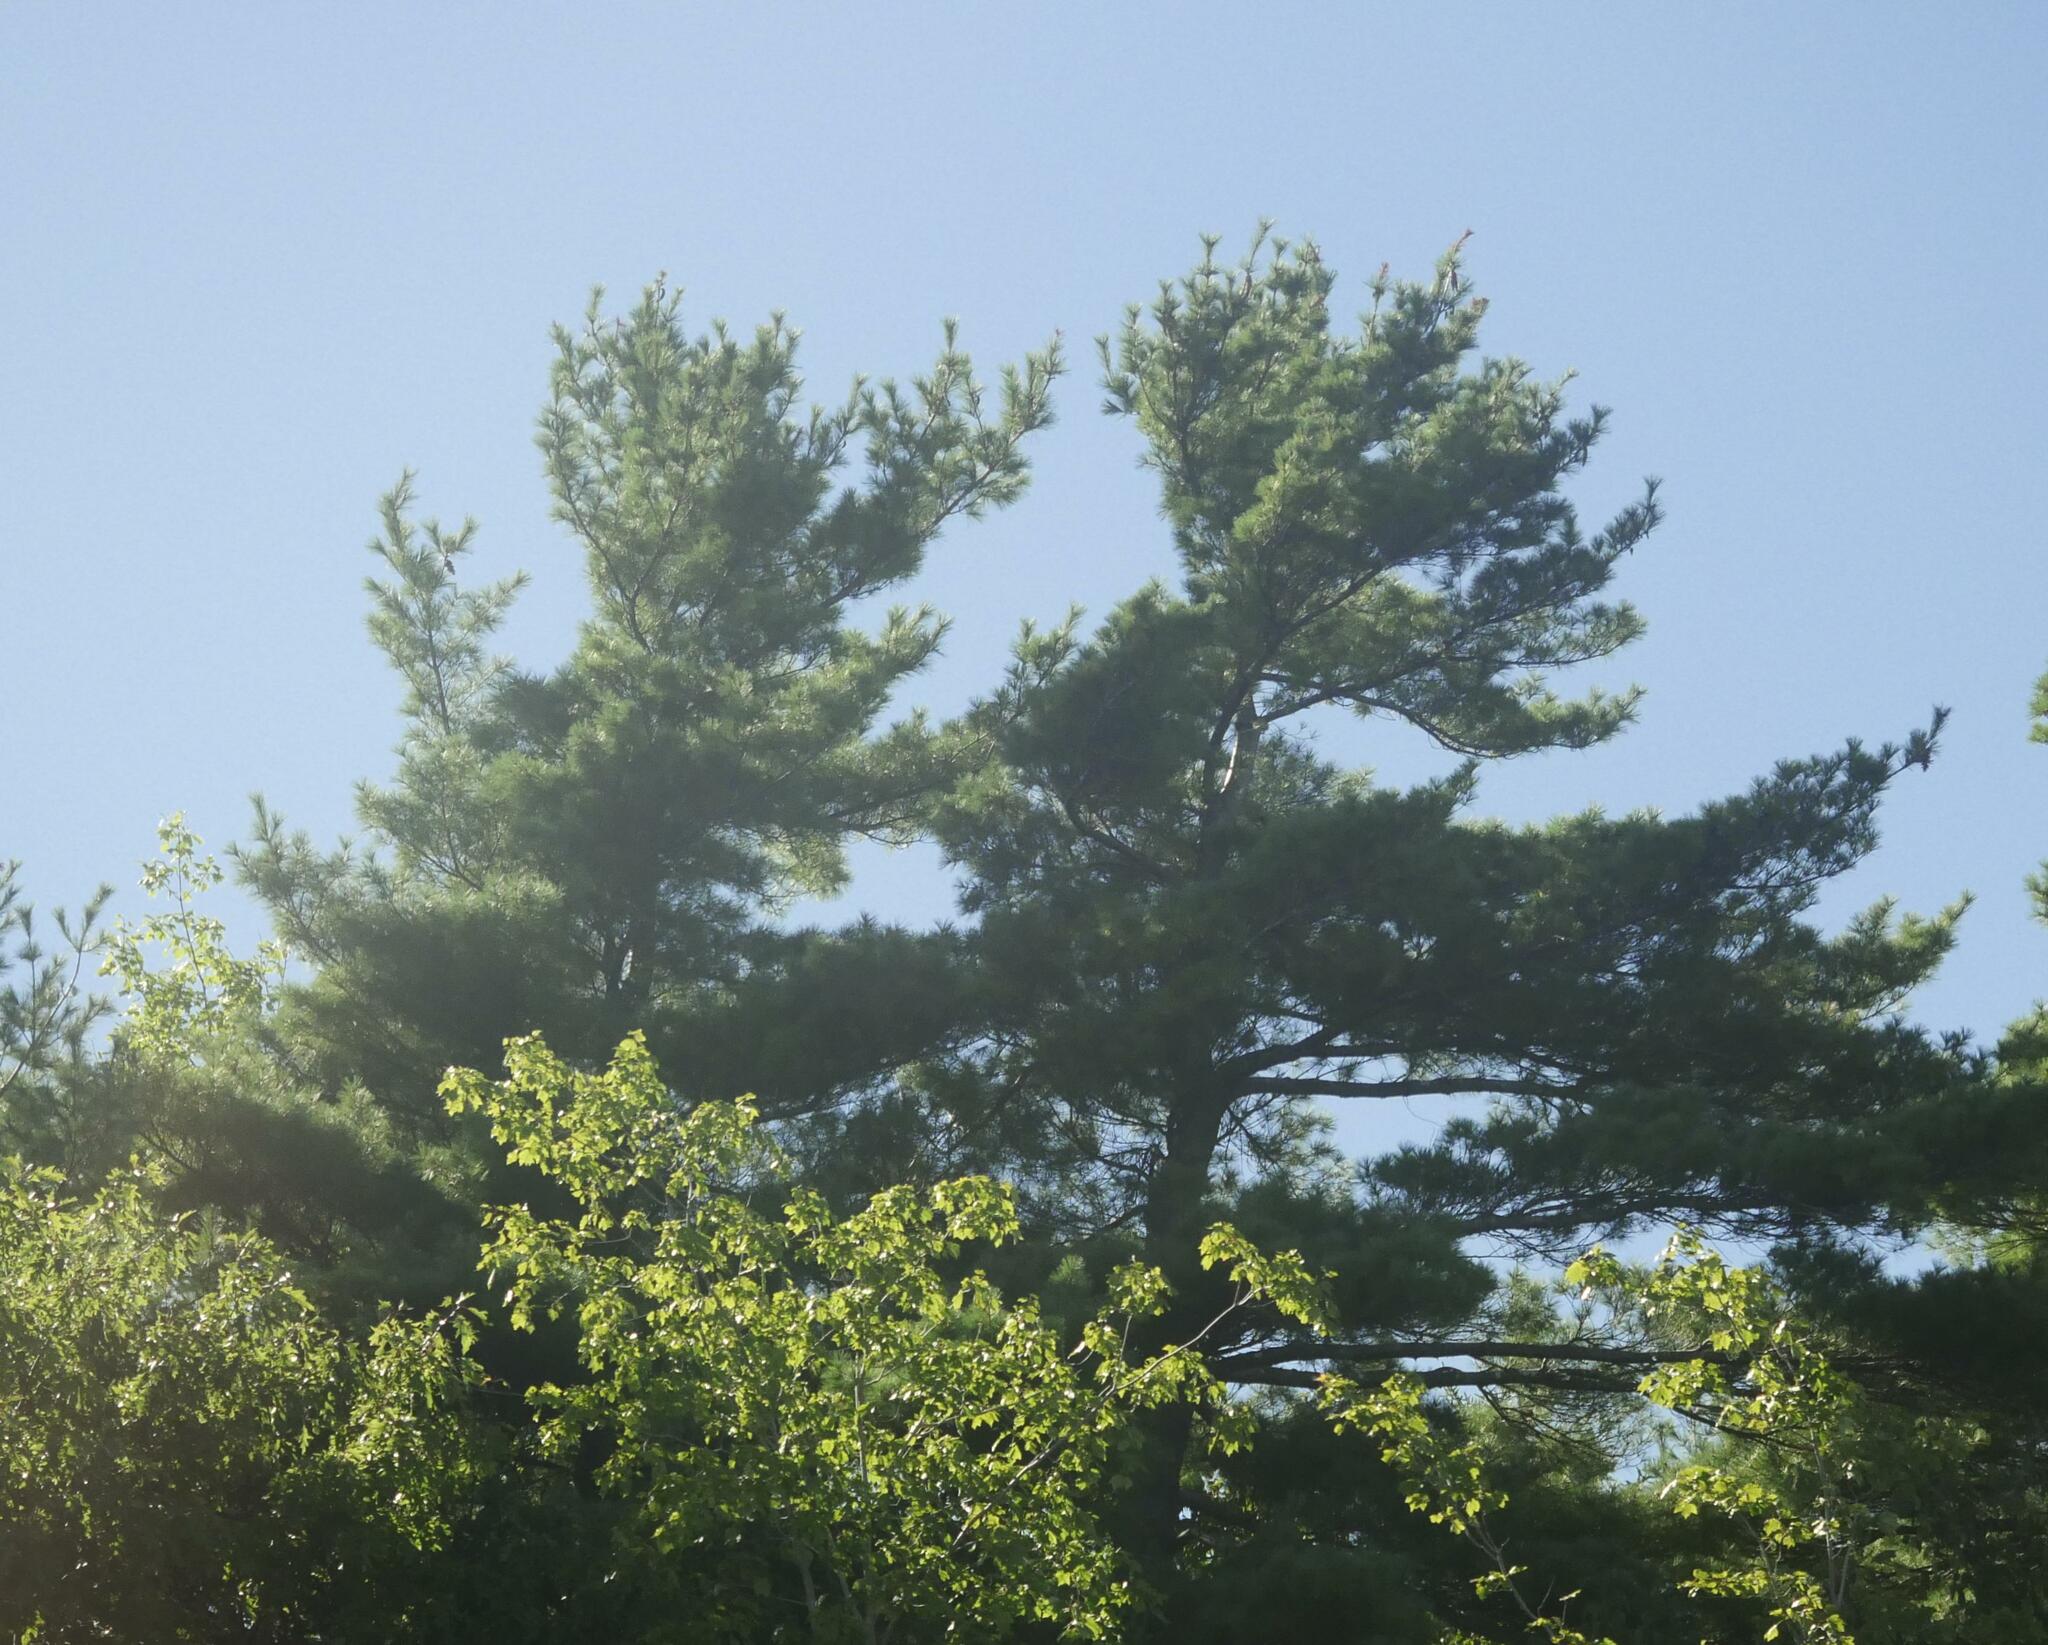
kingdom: Plantae
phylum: Tracheophyta
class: Pinopsida
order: Pinales
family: Pinaceae
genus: Pinus
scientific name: Pinus strobus
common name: Weymouth pine
